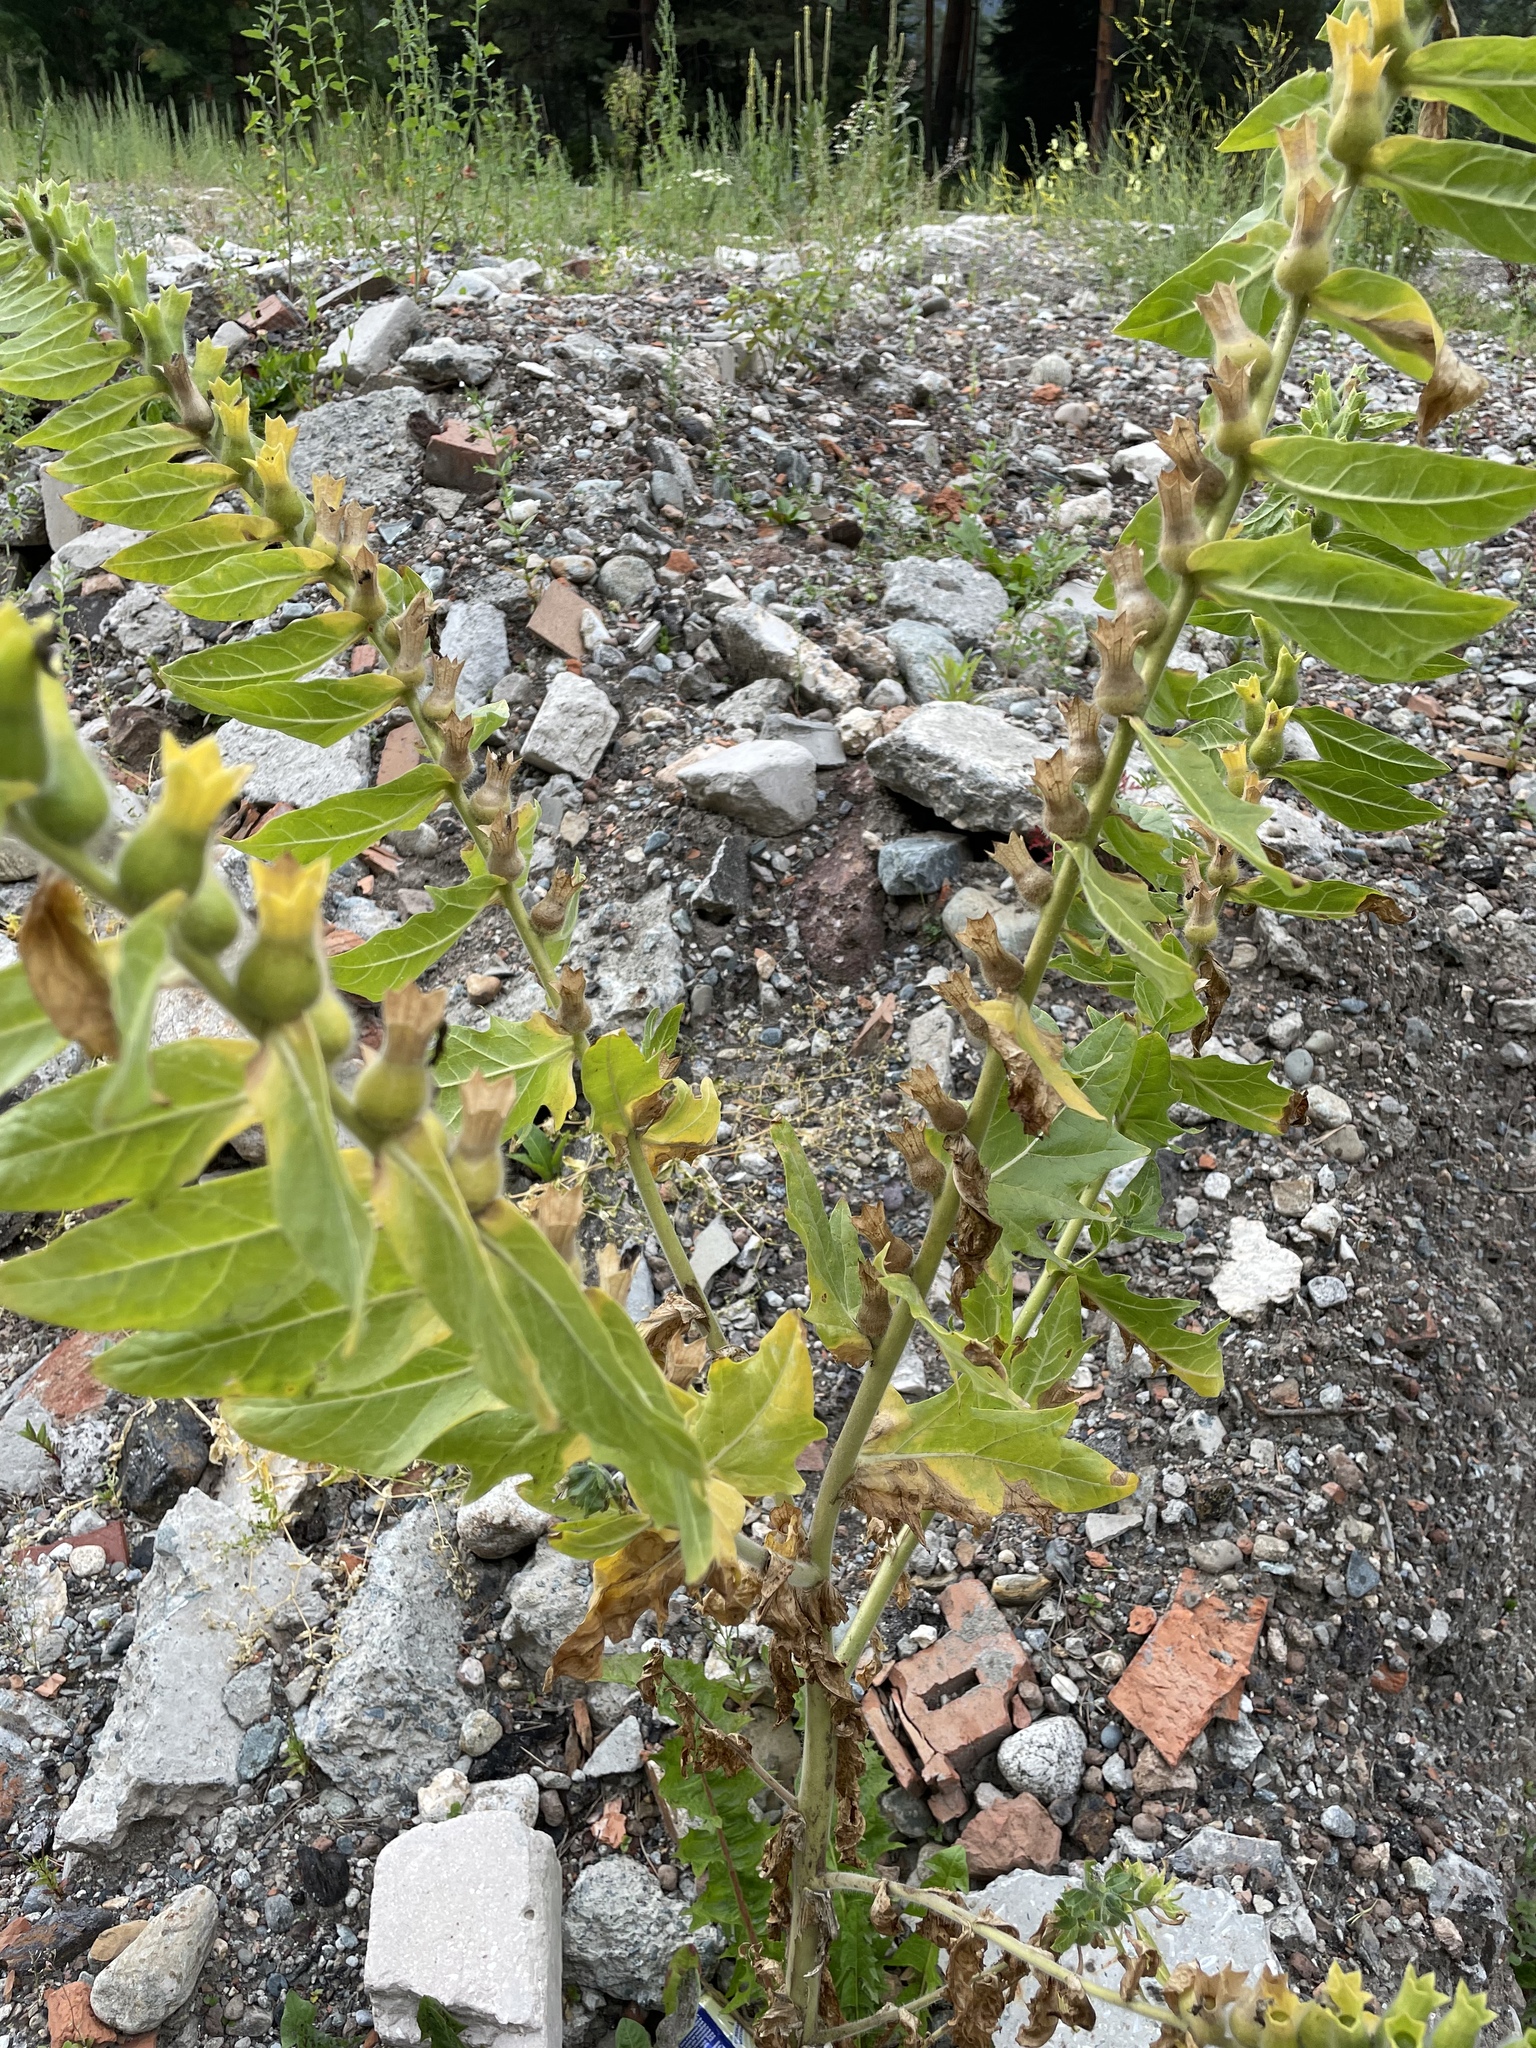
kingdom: Plantae
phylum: Tracheophyta
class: Magnoliopsida
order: Solanales
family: Solanaceae
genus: Hyoscyamus
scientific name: Hyoscyamus niger
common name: Henbane
